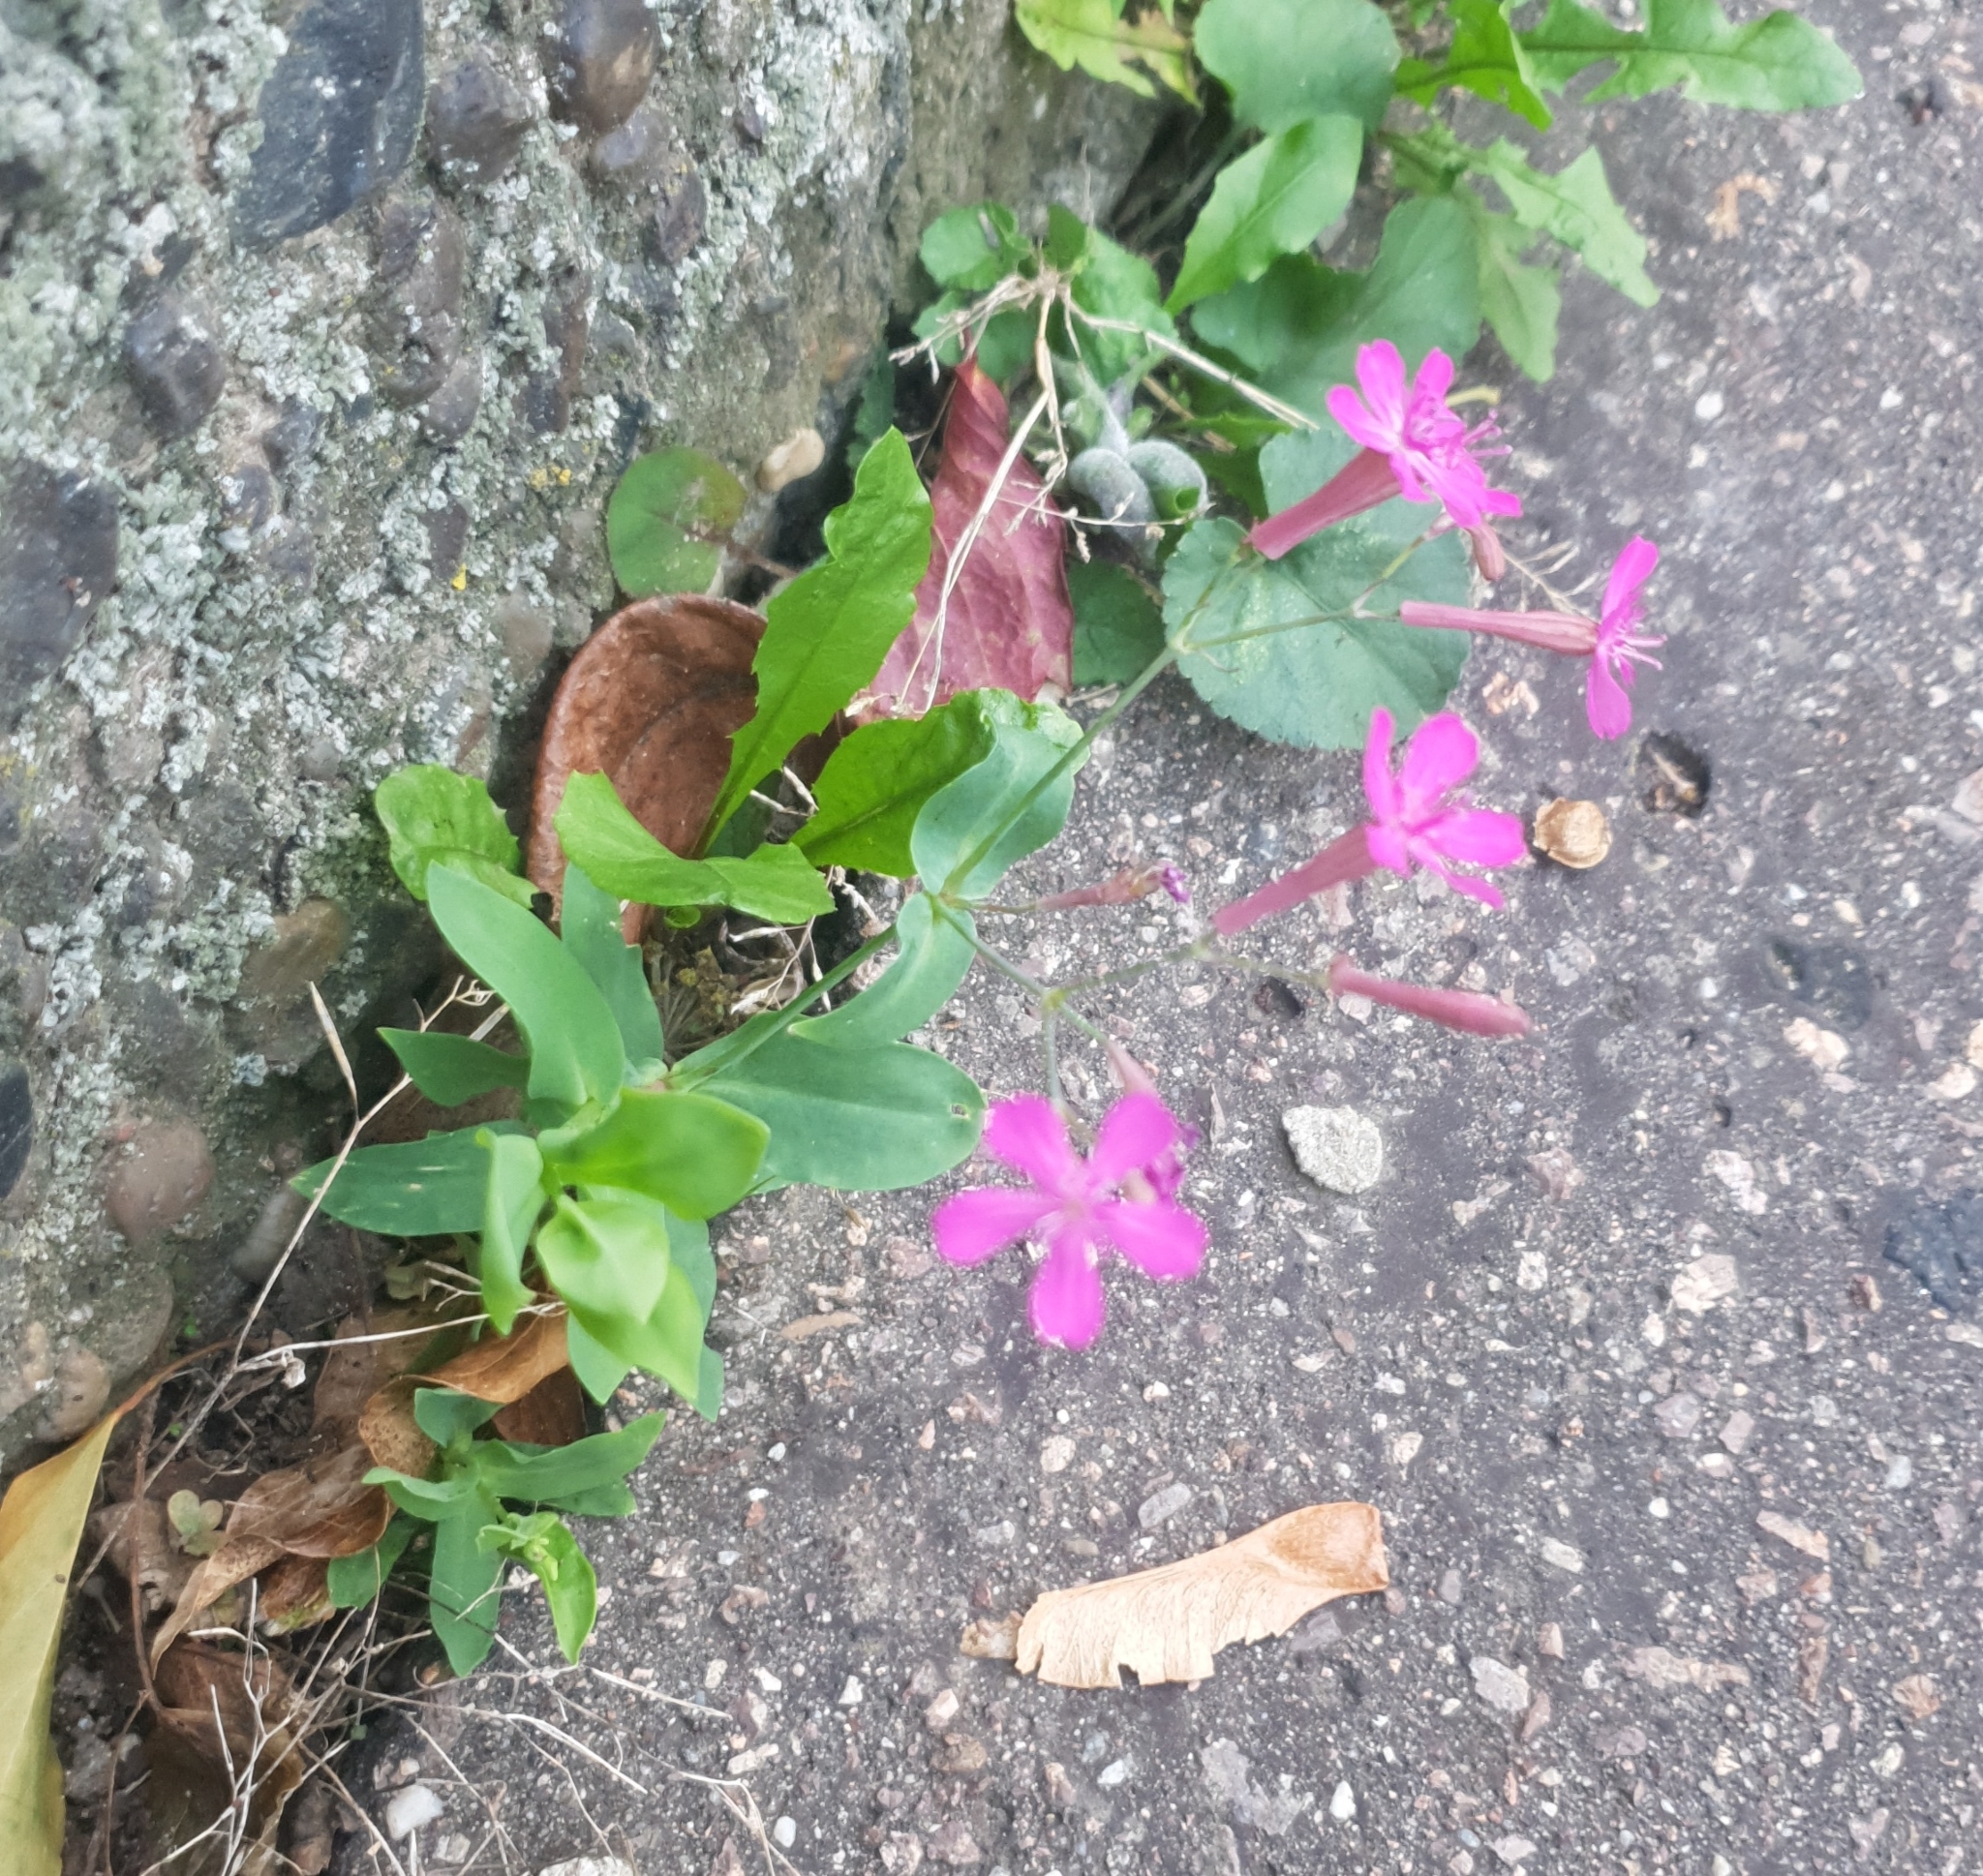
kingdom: Plantae
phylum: Tracheophyta
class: Magnoliopsida
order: Caryophyllales
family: Caryophyllaceae
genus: Atocion
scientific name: Atocion armeria
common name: Sweet william catchfly
